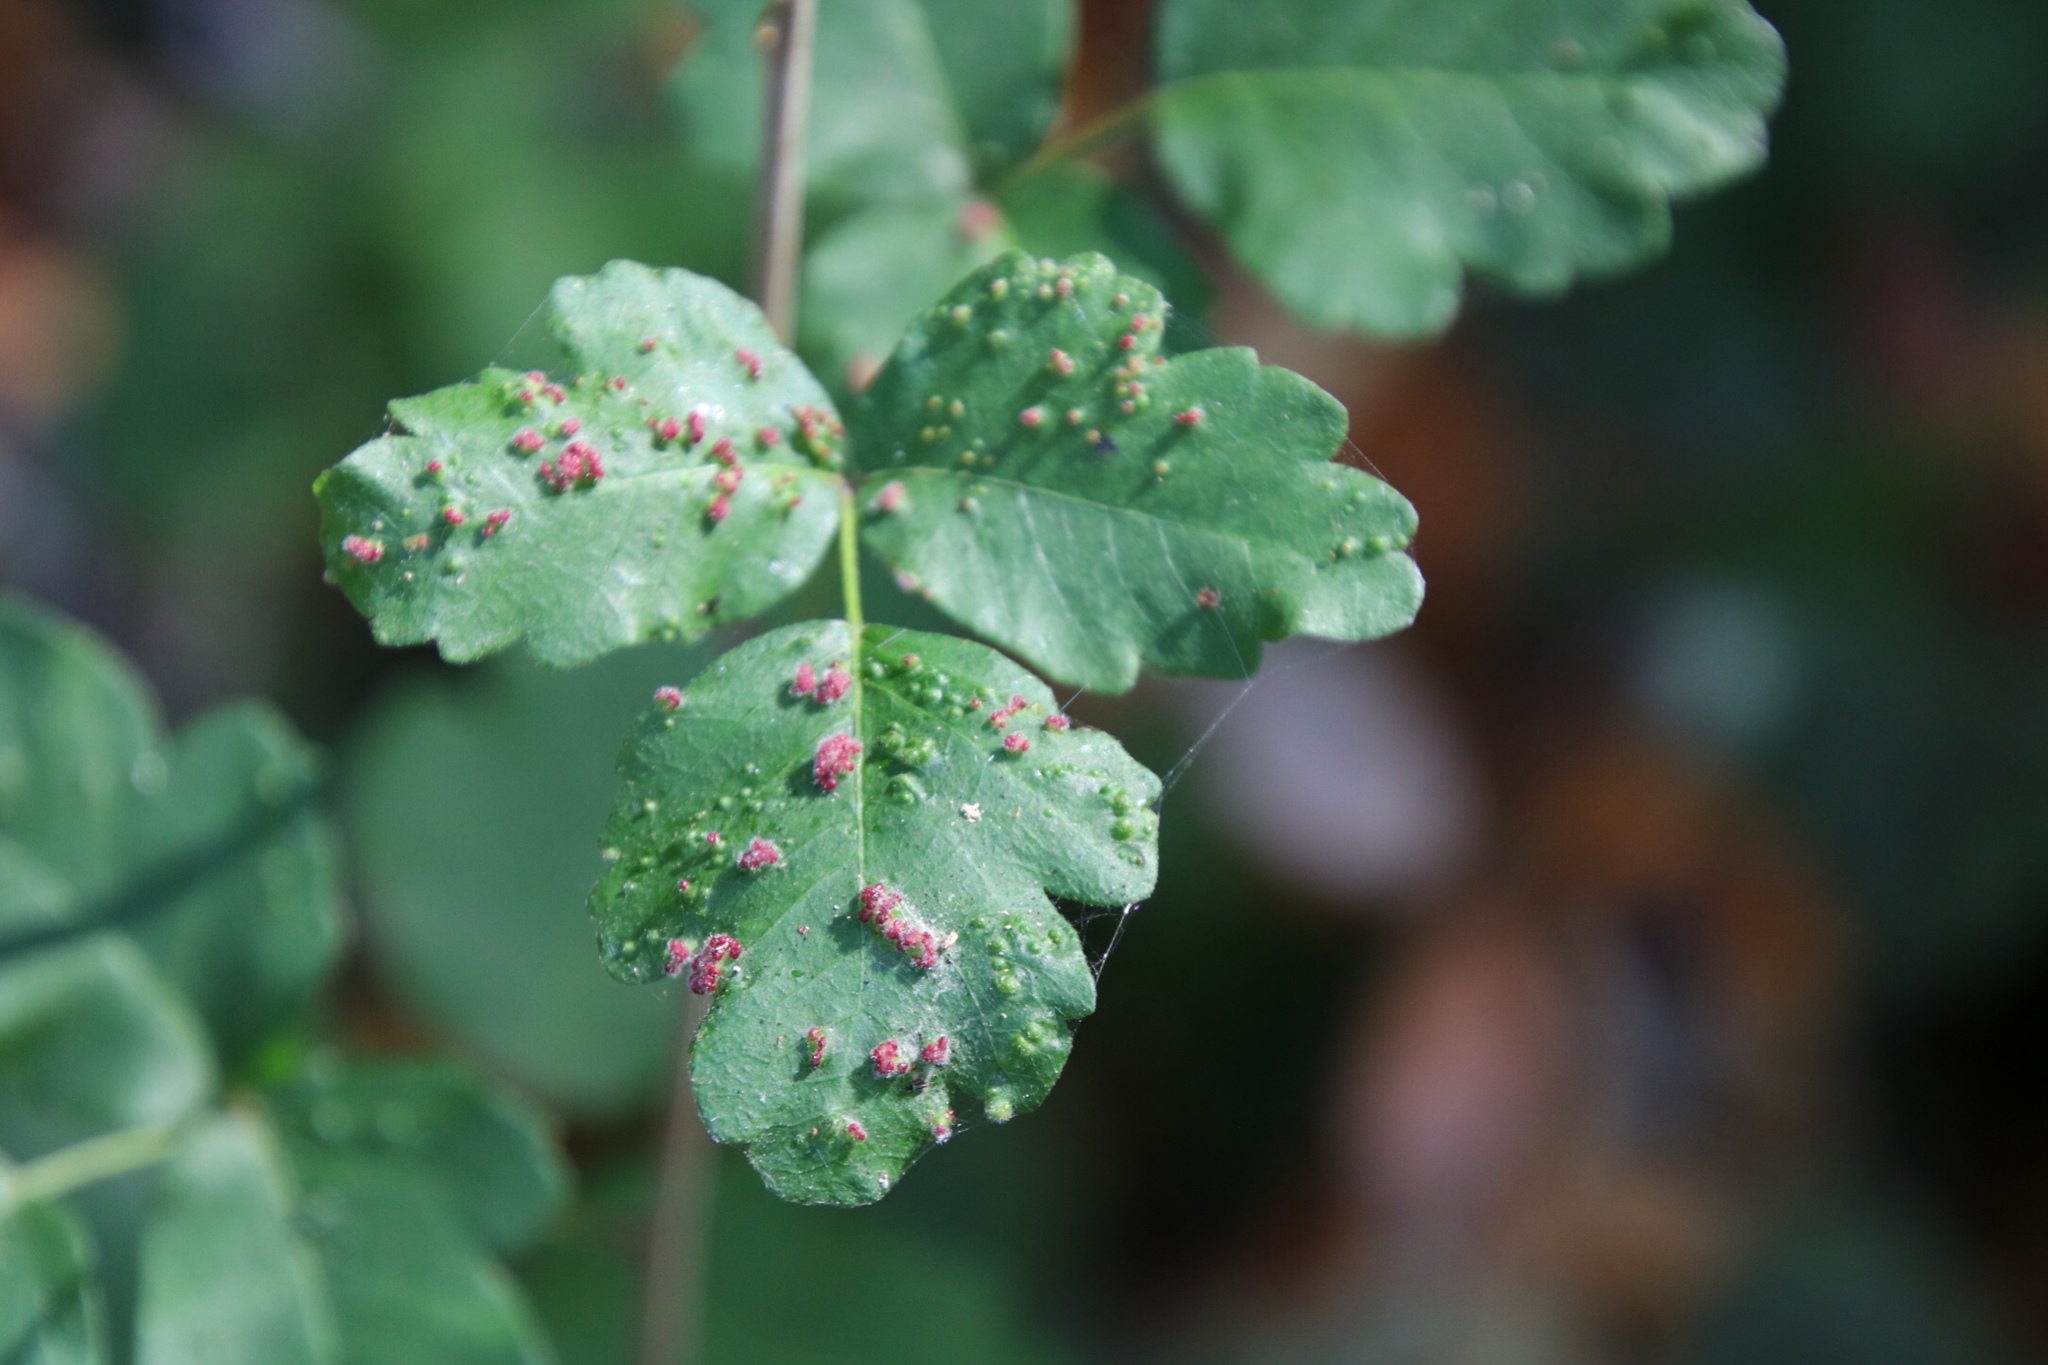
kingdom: Animalia
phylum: Arthropoda
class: Arachnida
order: Trombidiformes
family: Eriophyidae
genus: Aculops
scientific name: Aculops
